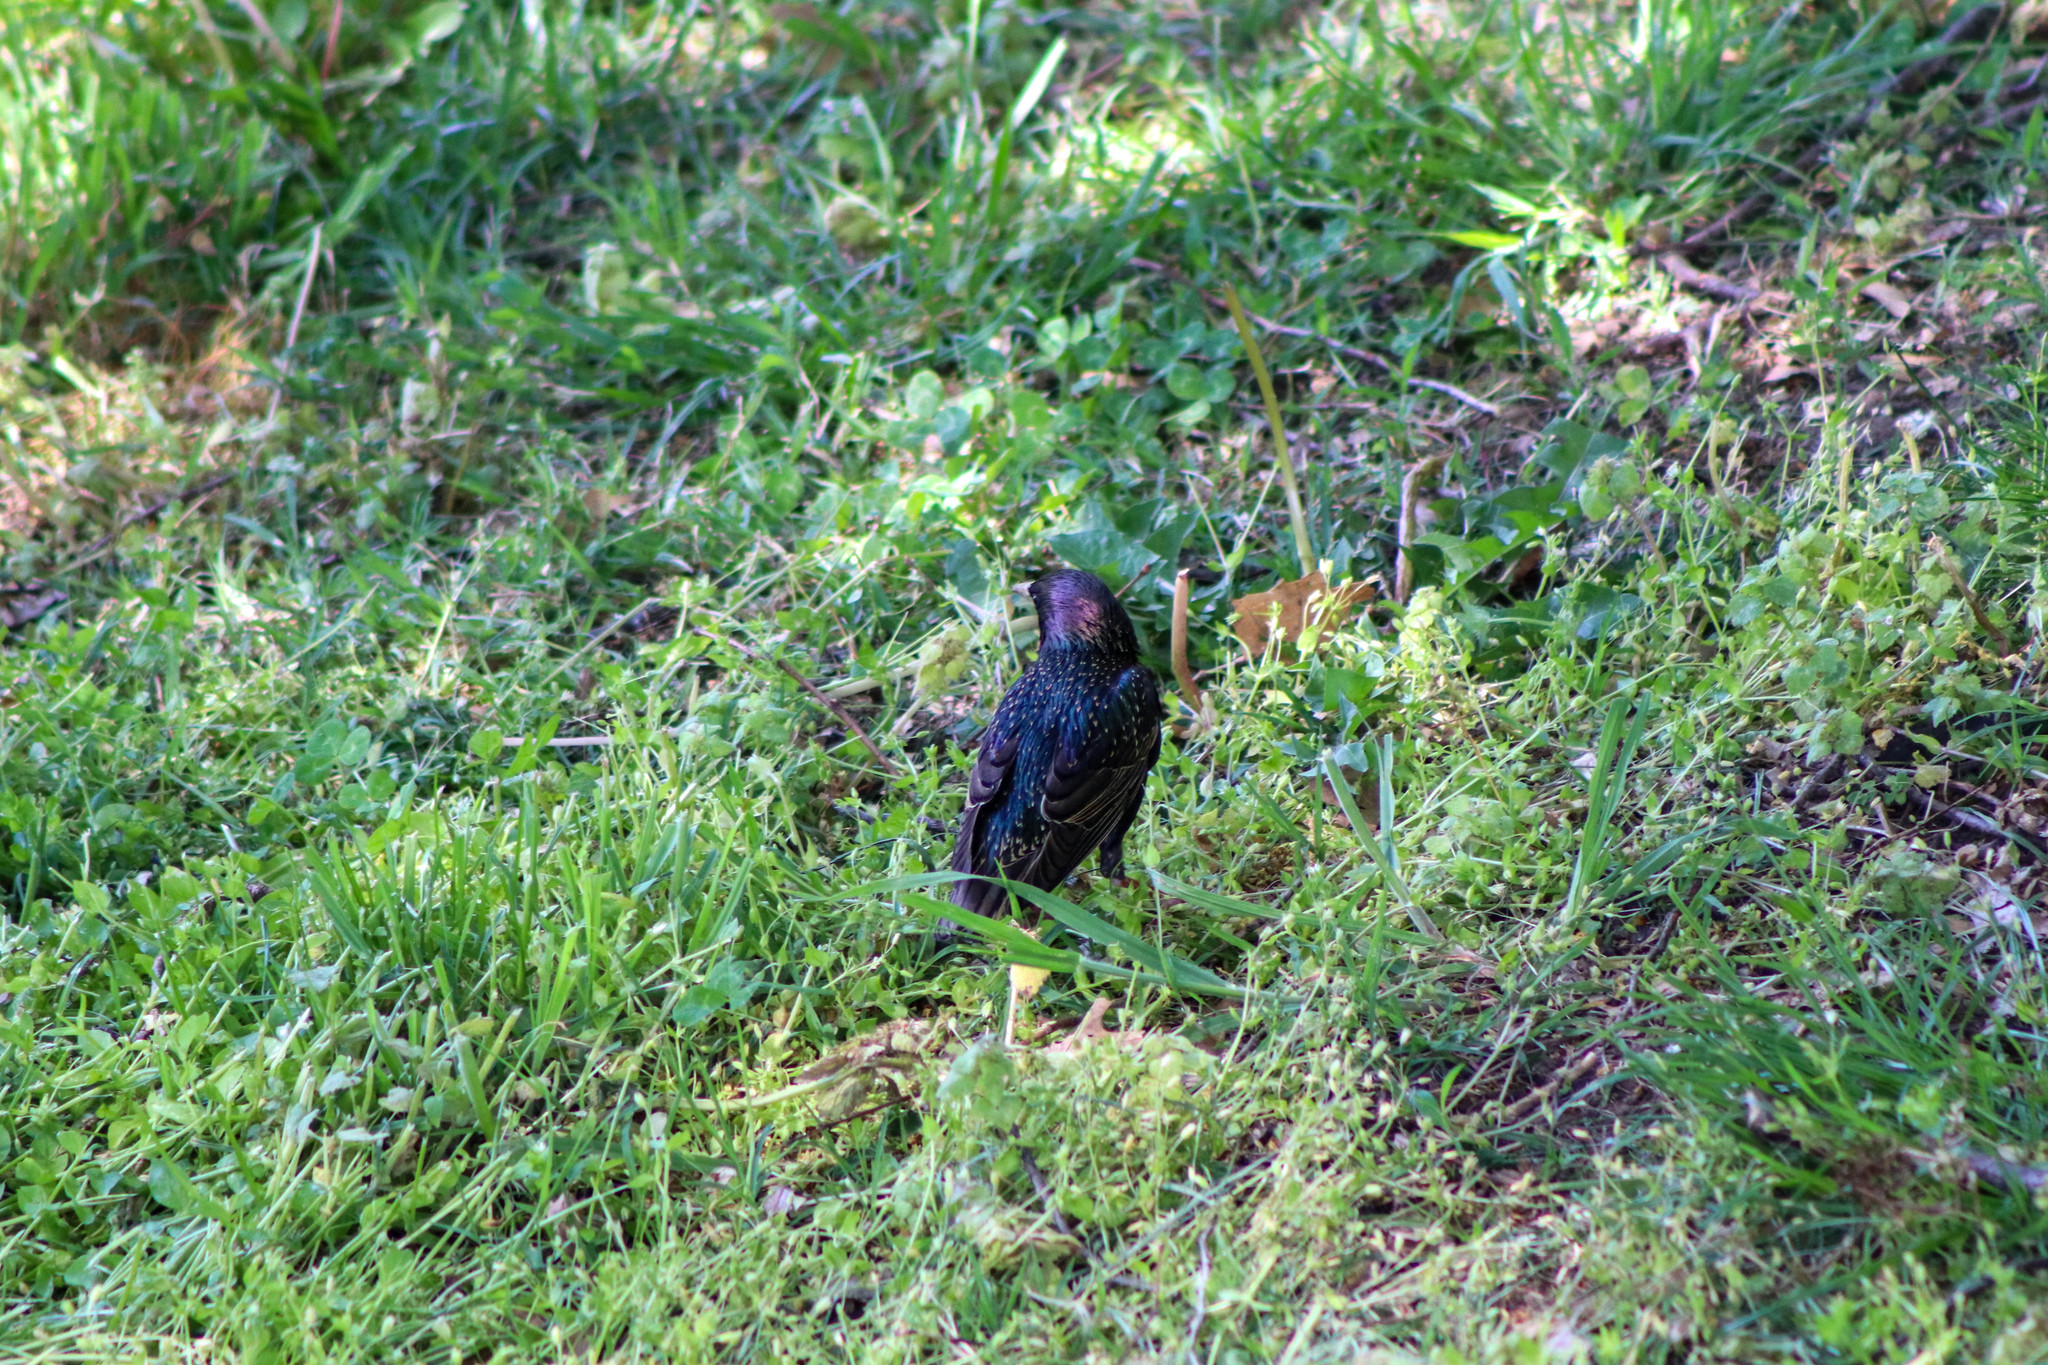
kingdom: Animalia
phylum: Chordata
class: Aves
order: Passeriformes
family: Sturnidae
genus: Sturnus
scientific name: Sturnus vulgaris
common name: Common starling
